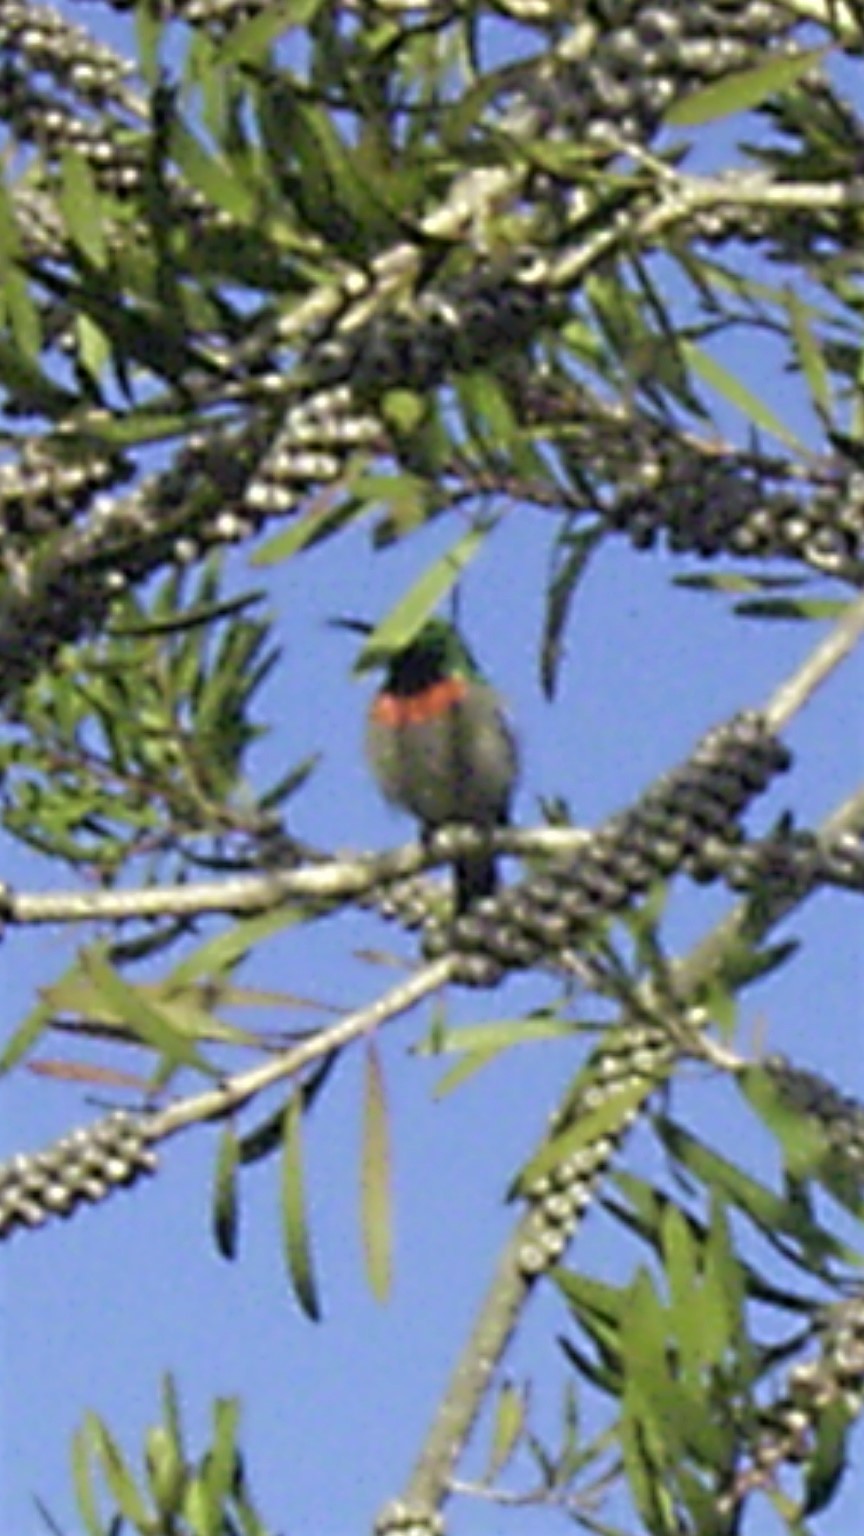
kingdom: Animalia
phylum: Chordata
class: Aves
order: Passeriformes
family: Nectariniidae
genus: Cinnyris
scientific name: Cinnyris chalybeus
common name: Southern double-collared sunbird
